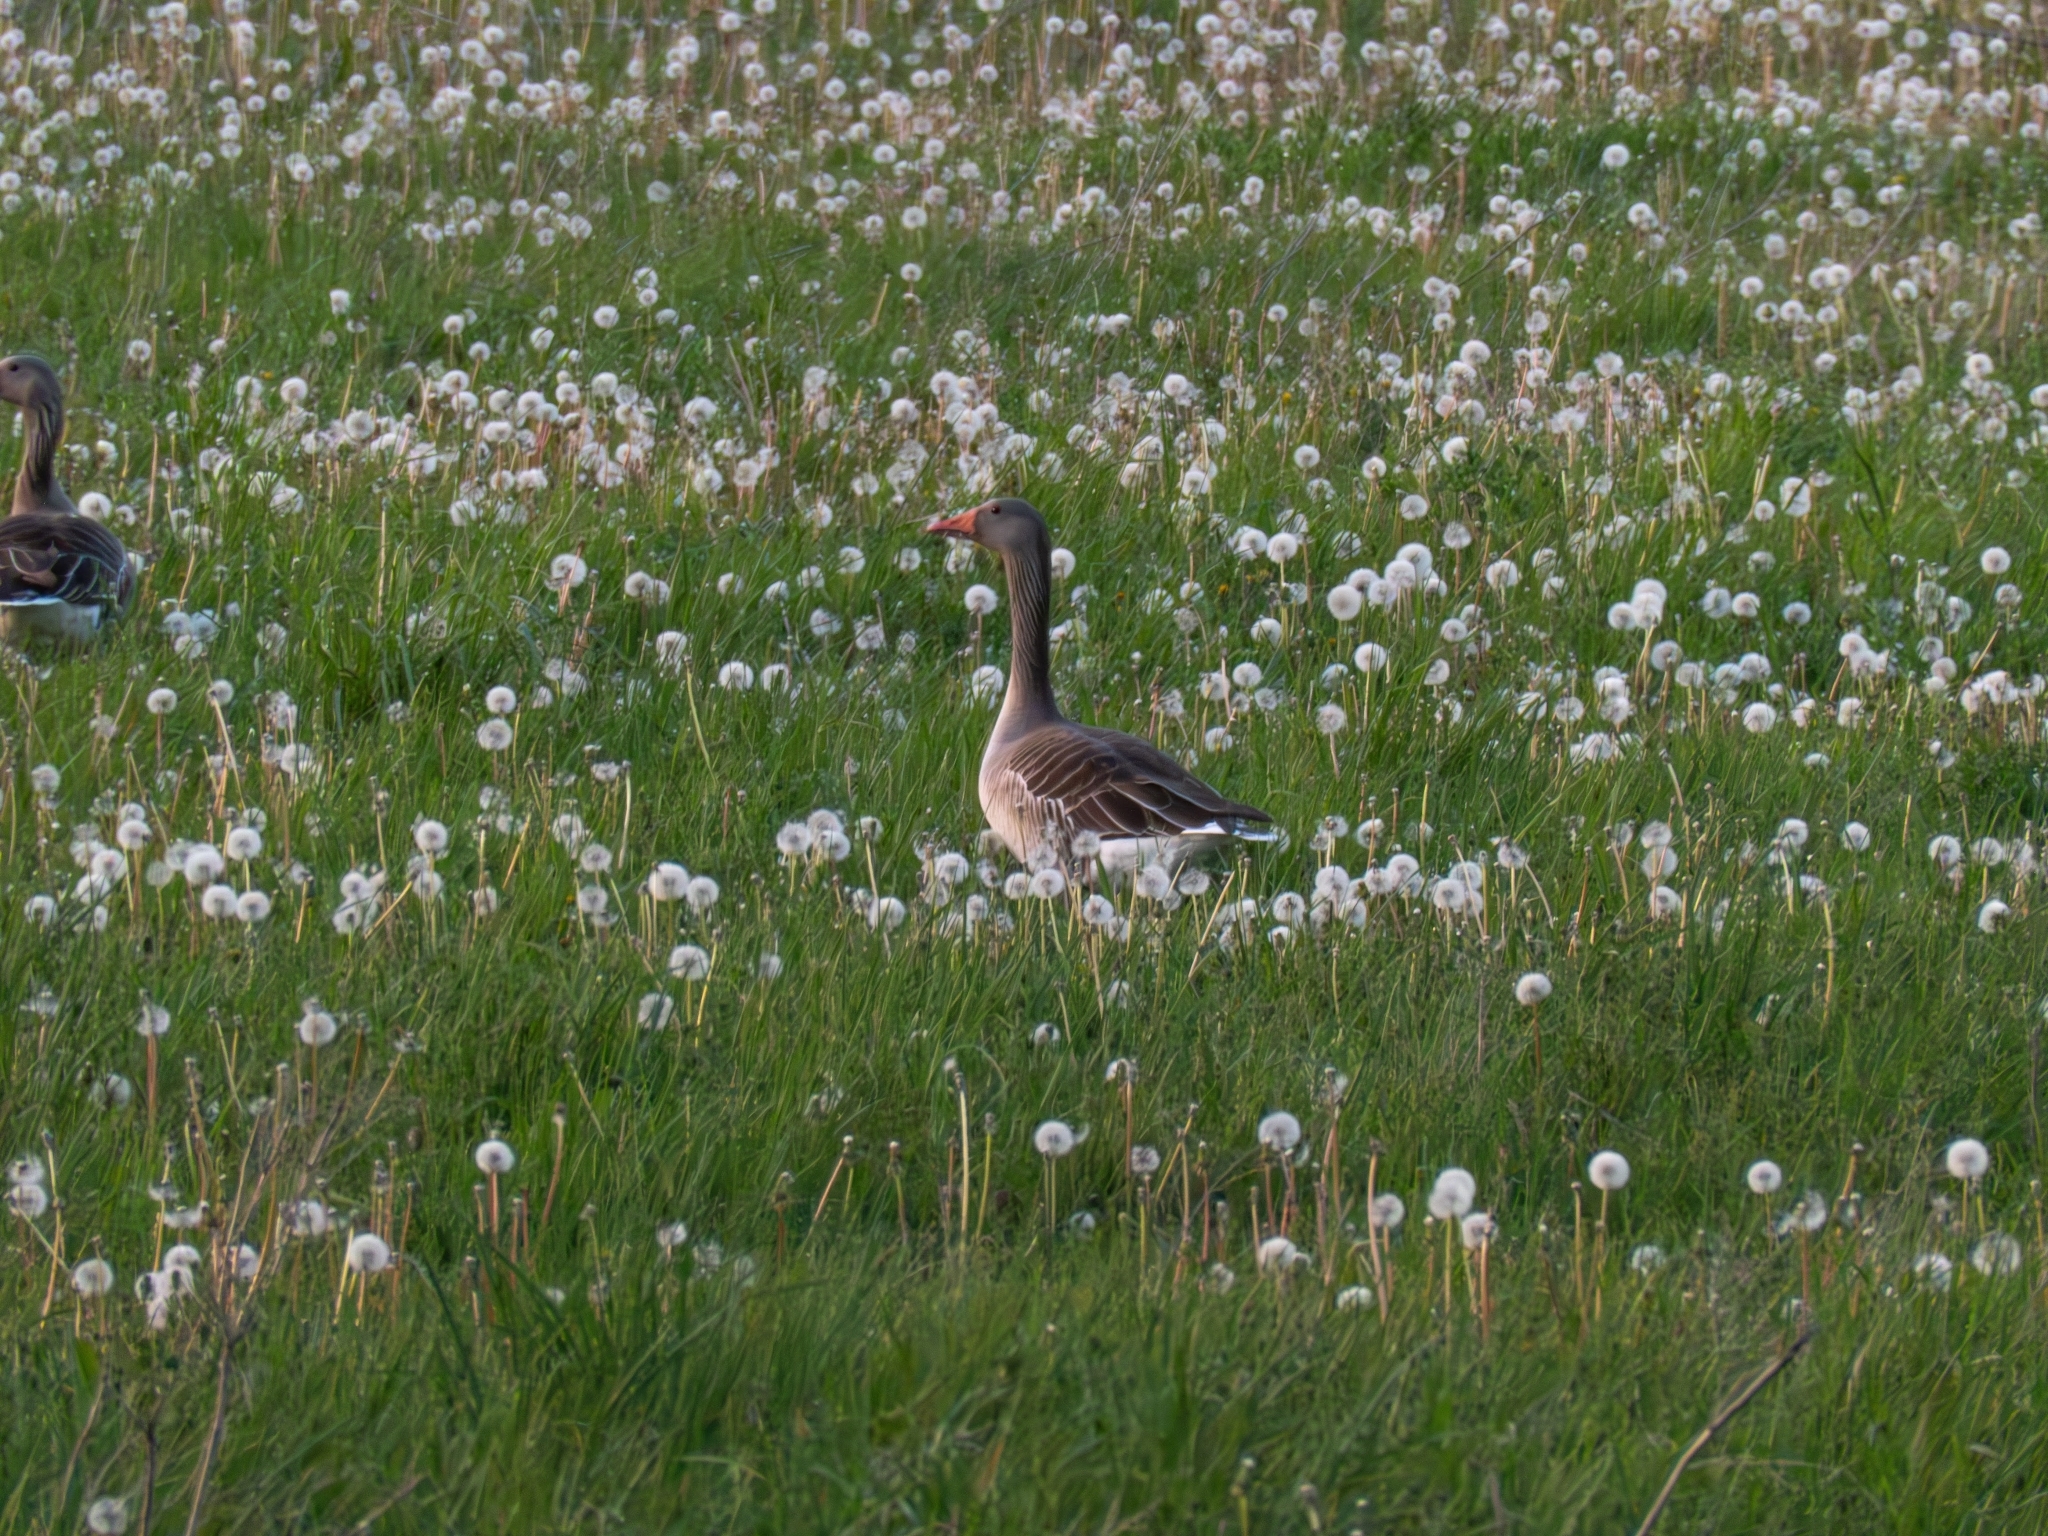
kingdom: Animalia
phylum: Chordata
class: Aves
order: Anseriformes
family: Anatidae
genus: Anser
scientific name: Anser anser
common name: Greylag goose
